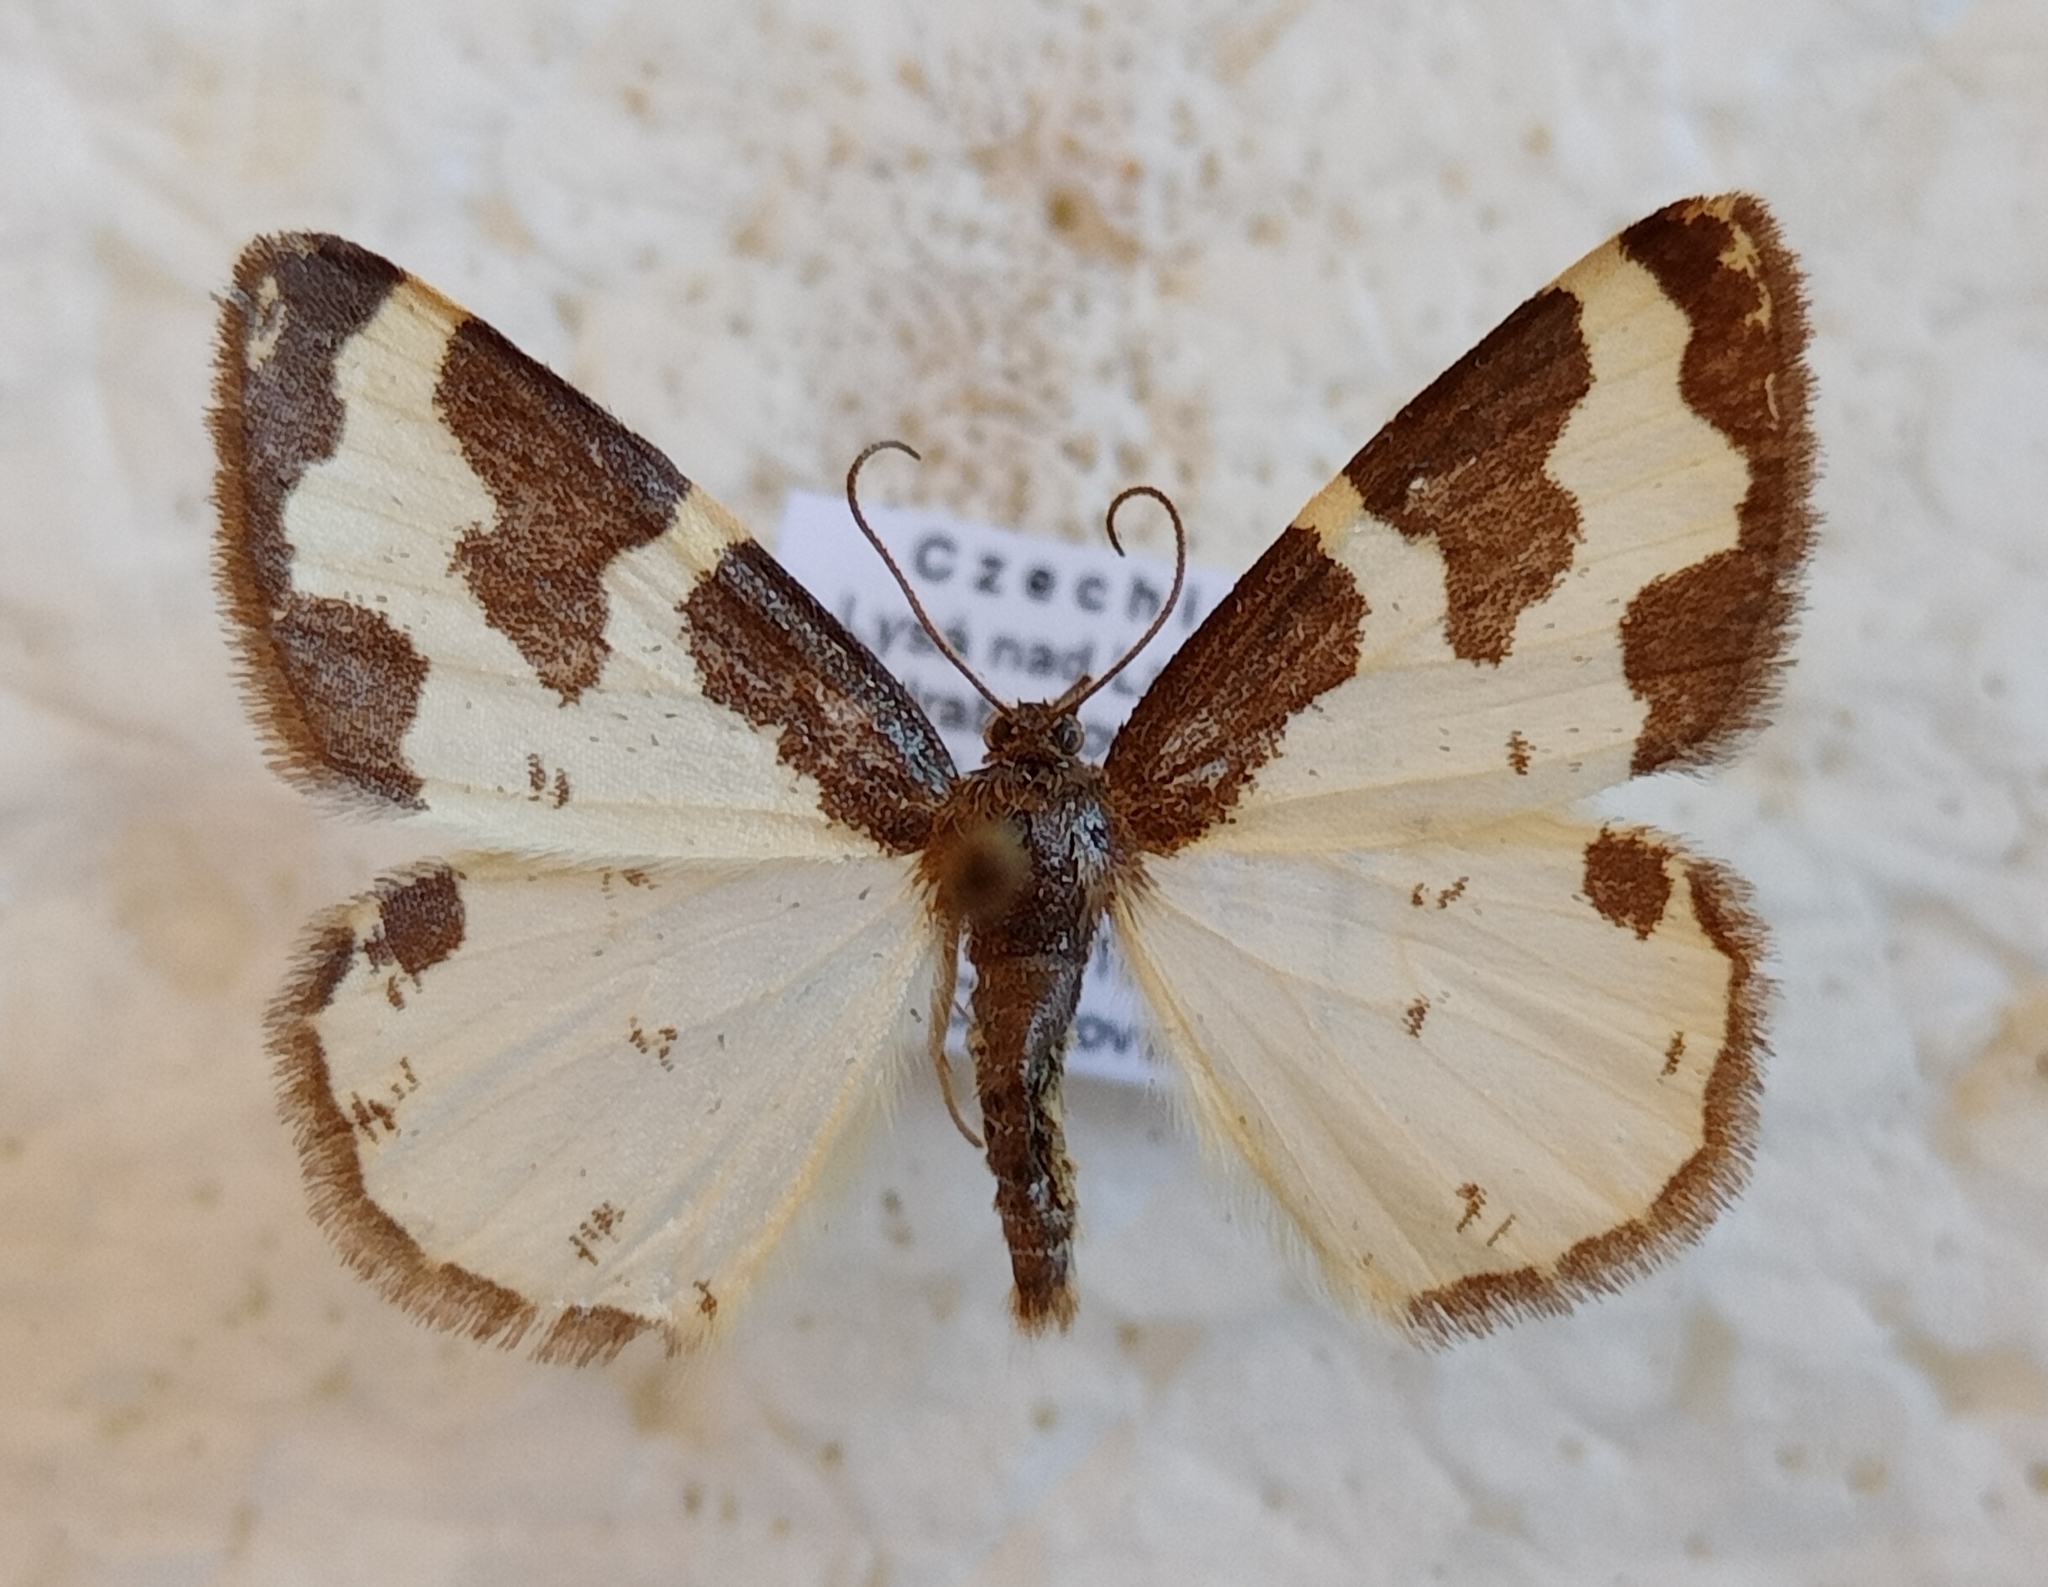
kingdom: Animalia
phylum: Arthropoda
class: Insecta
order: Lepidoptera
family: Geometridae
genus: Lomaspilis
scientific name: Lomaspilis marginata
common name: Clouded border
